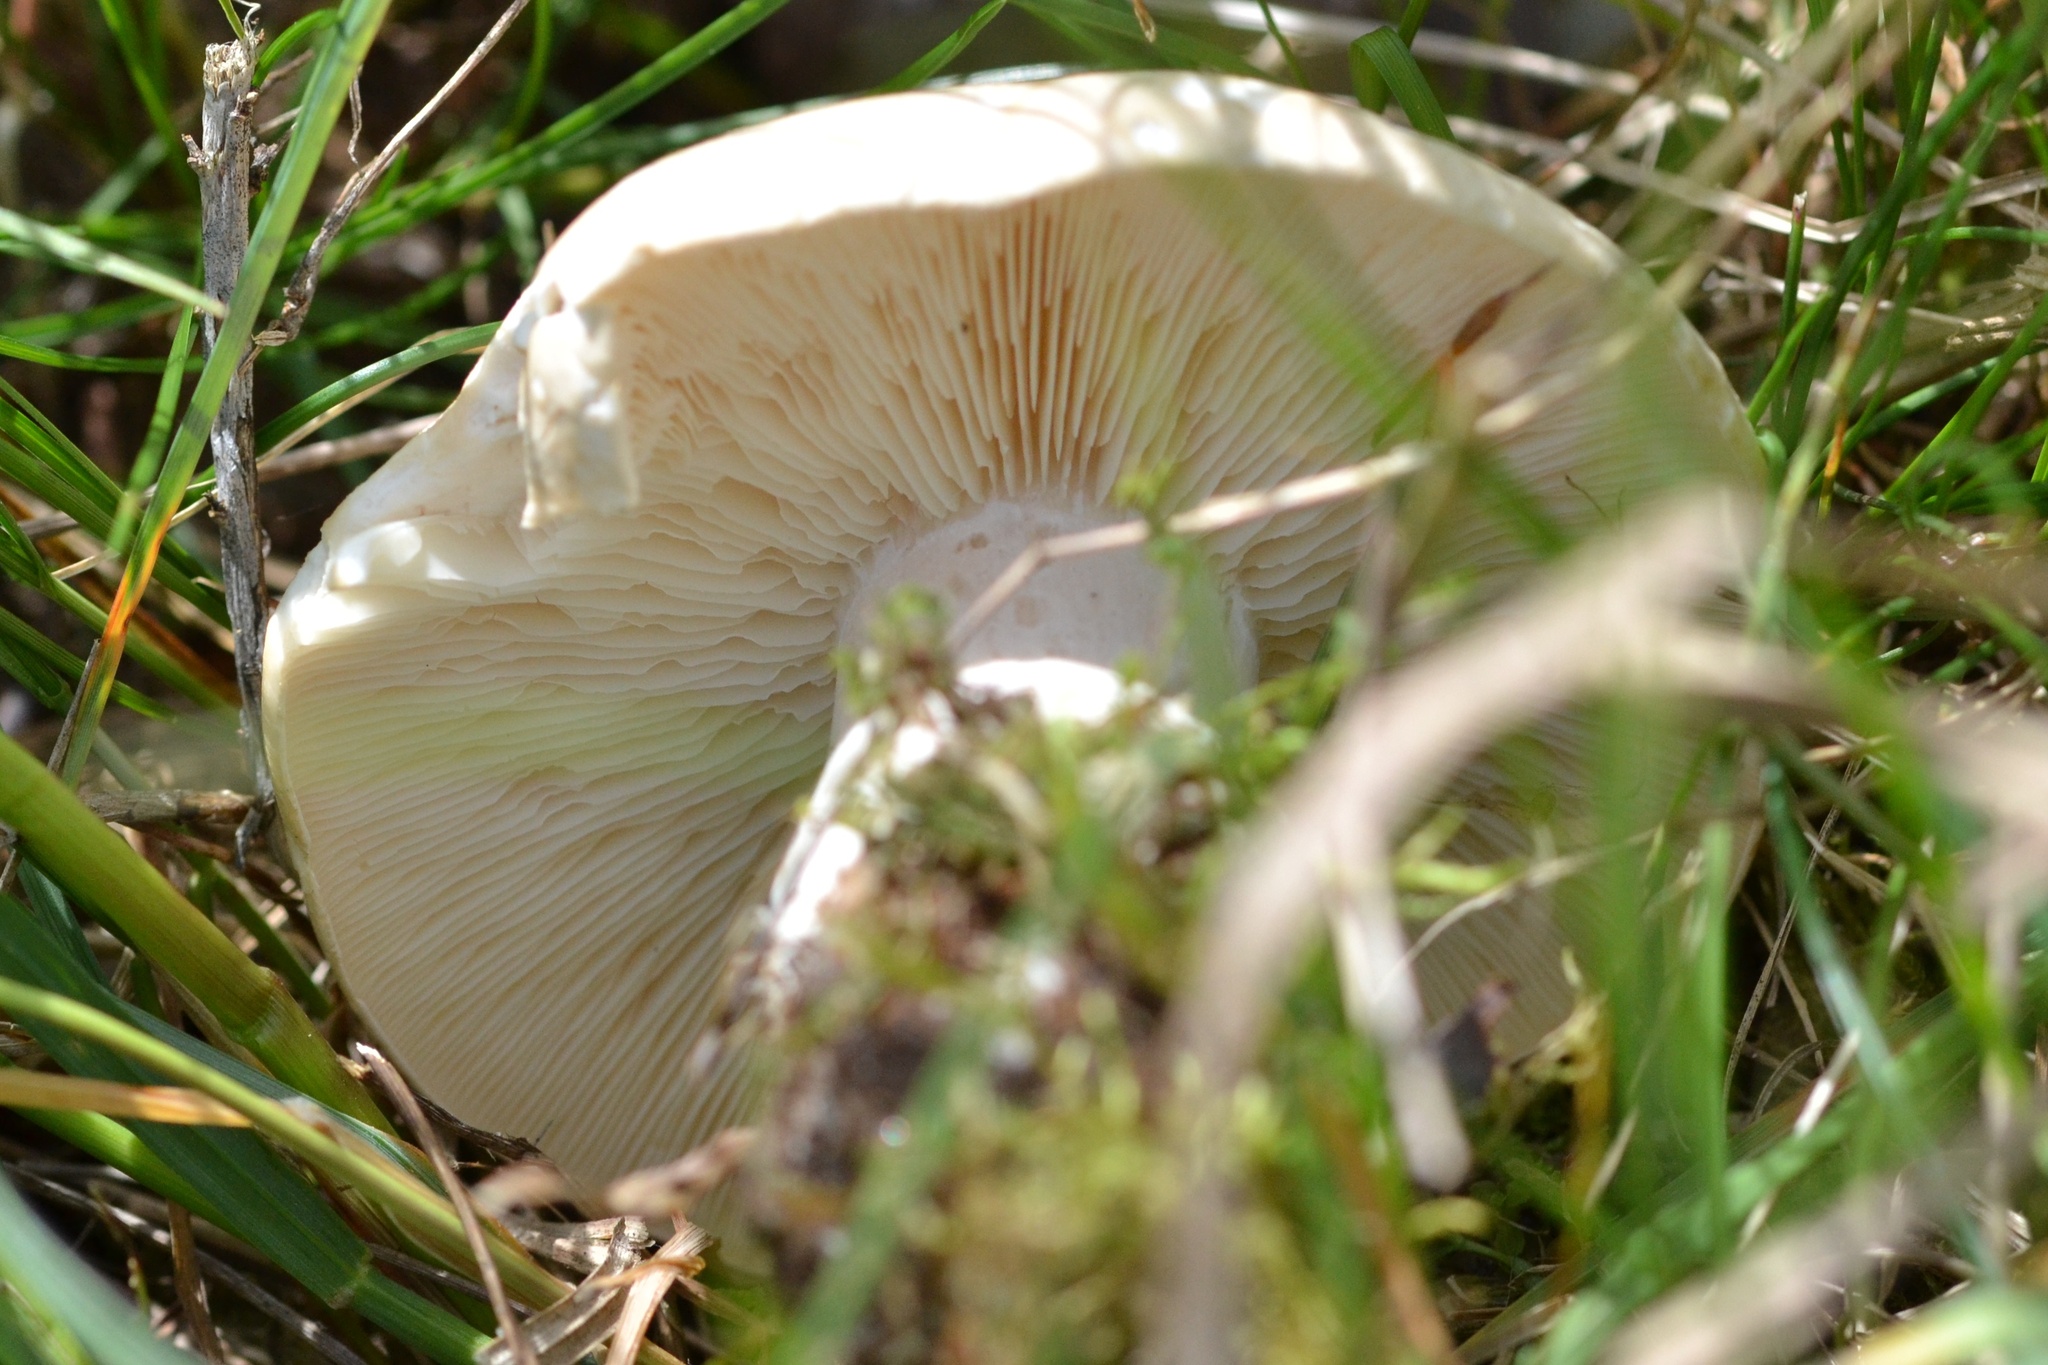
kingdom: Fungi
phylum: Basidiomycota
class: Agaricomycetes
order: Agaricales
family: Lyophyllaceae
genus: Calocybe
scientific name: Calocybe gambosa
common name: St. george's mushroom
